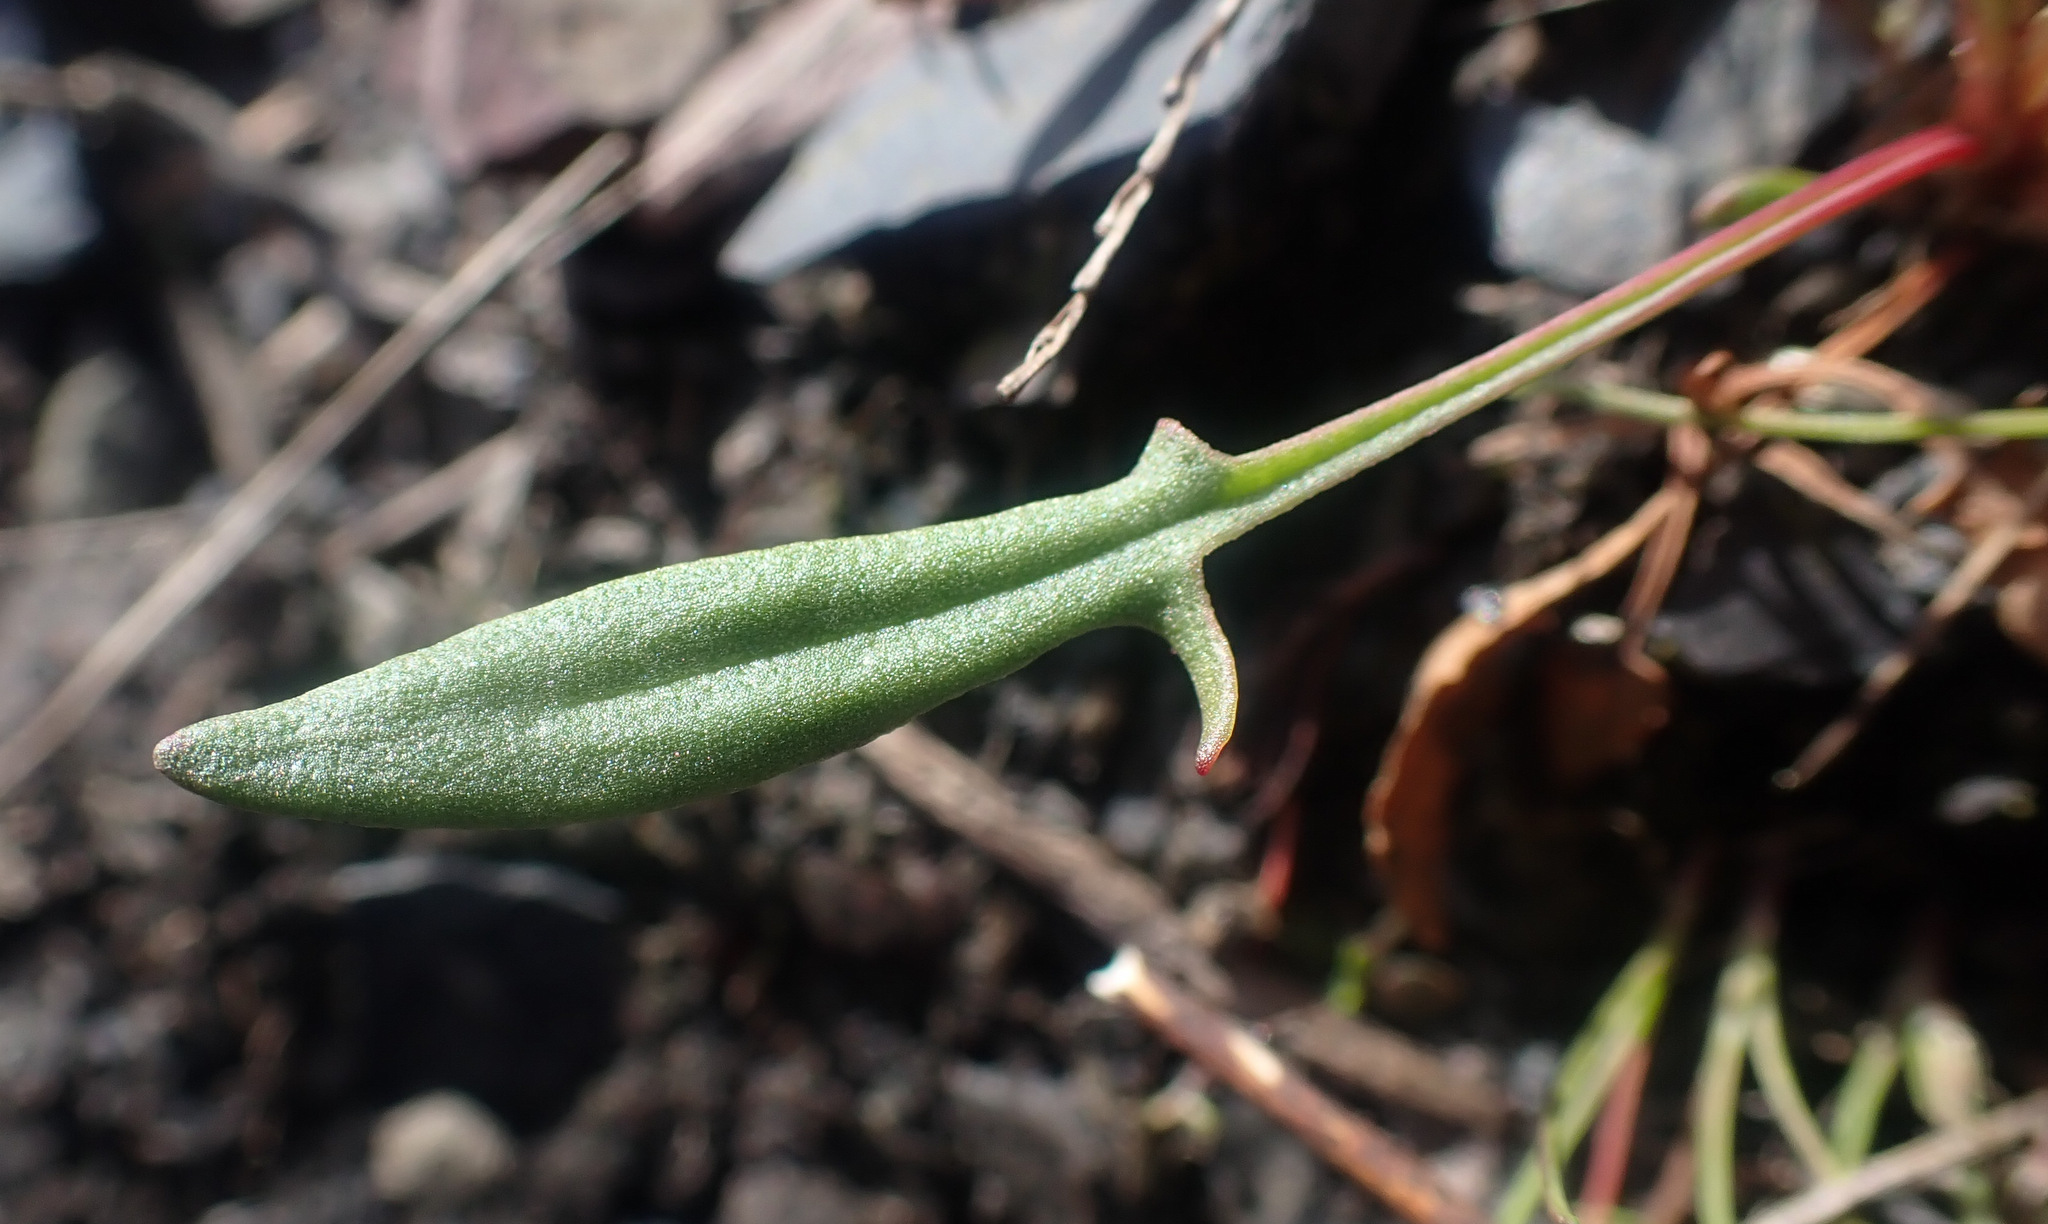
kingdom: Plantae
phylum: Tracheophyta
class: Magnoliopsida
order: Caryophyllales
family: Polygonaceae
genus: Rumex
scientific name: Rumex acetosella
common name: Common sheep sorrel
